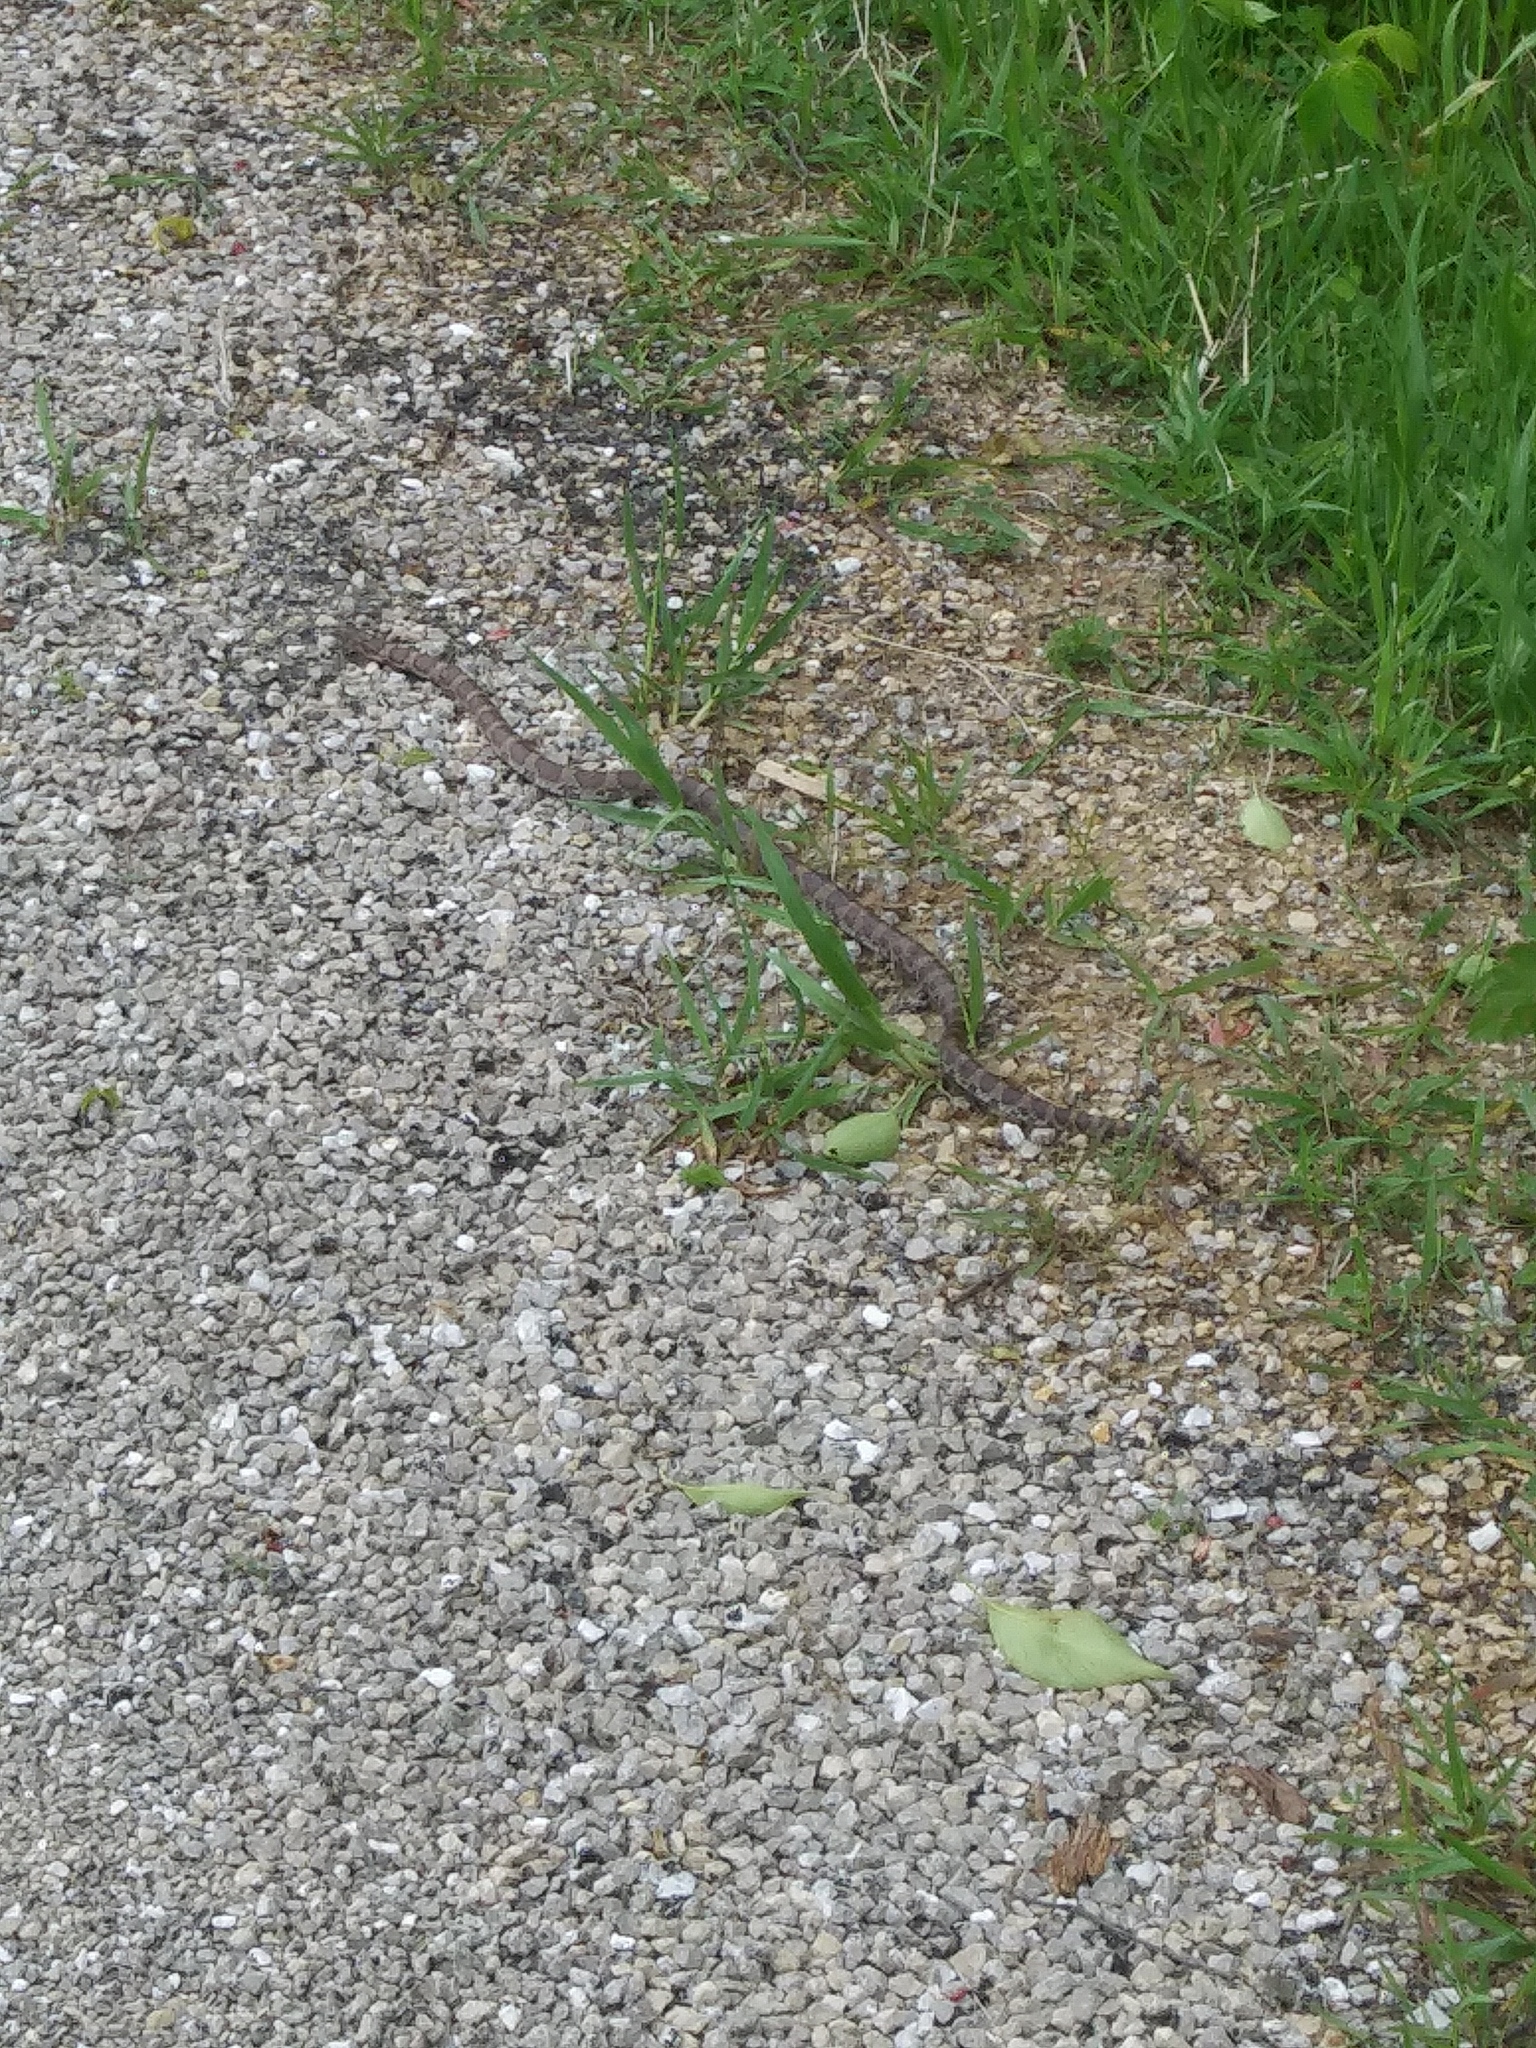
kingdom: Animalia
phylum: Chordata
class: Squamata
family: Colubridae
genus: Lampropeltis
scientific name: Lampropeltis triangulum
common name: Eastern milksnake
